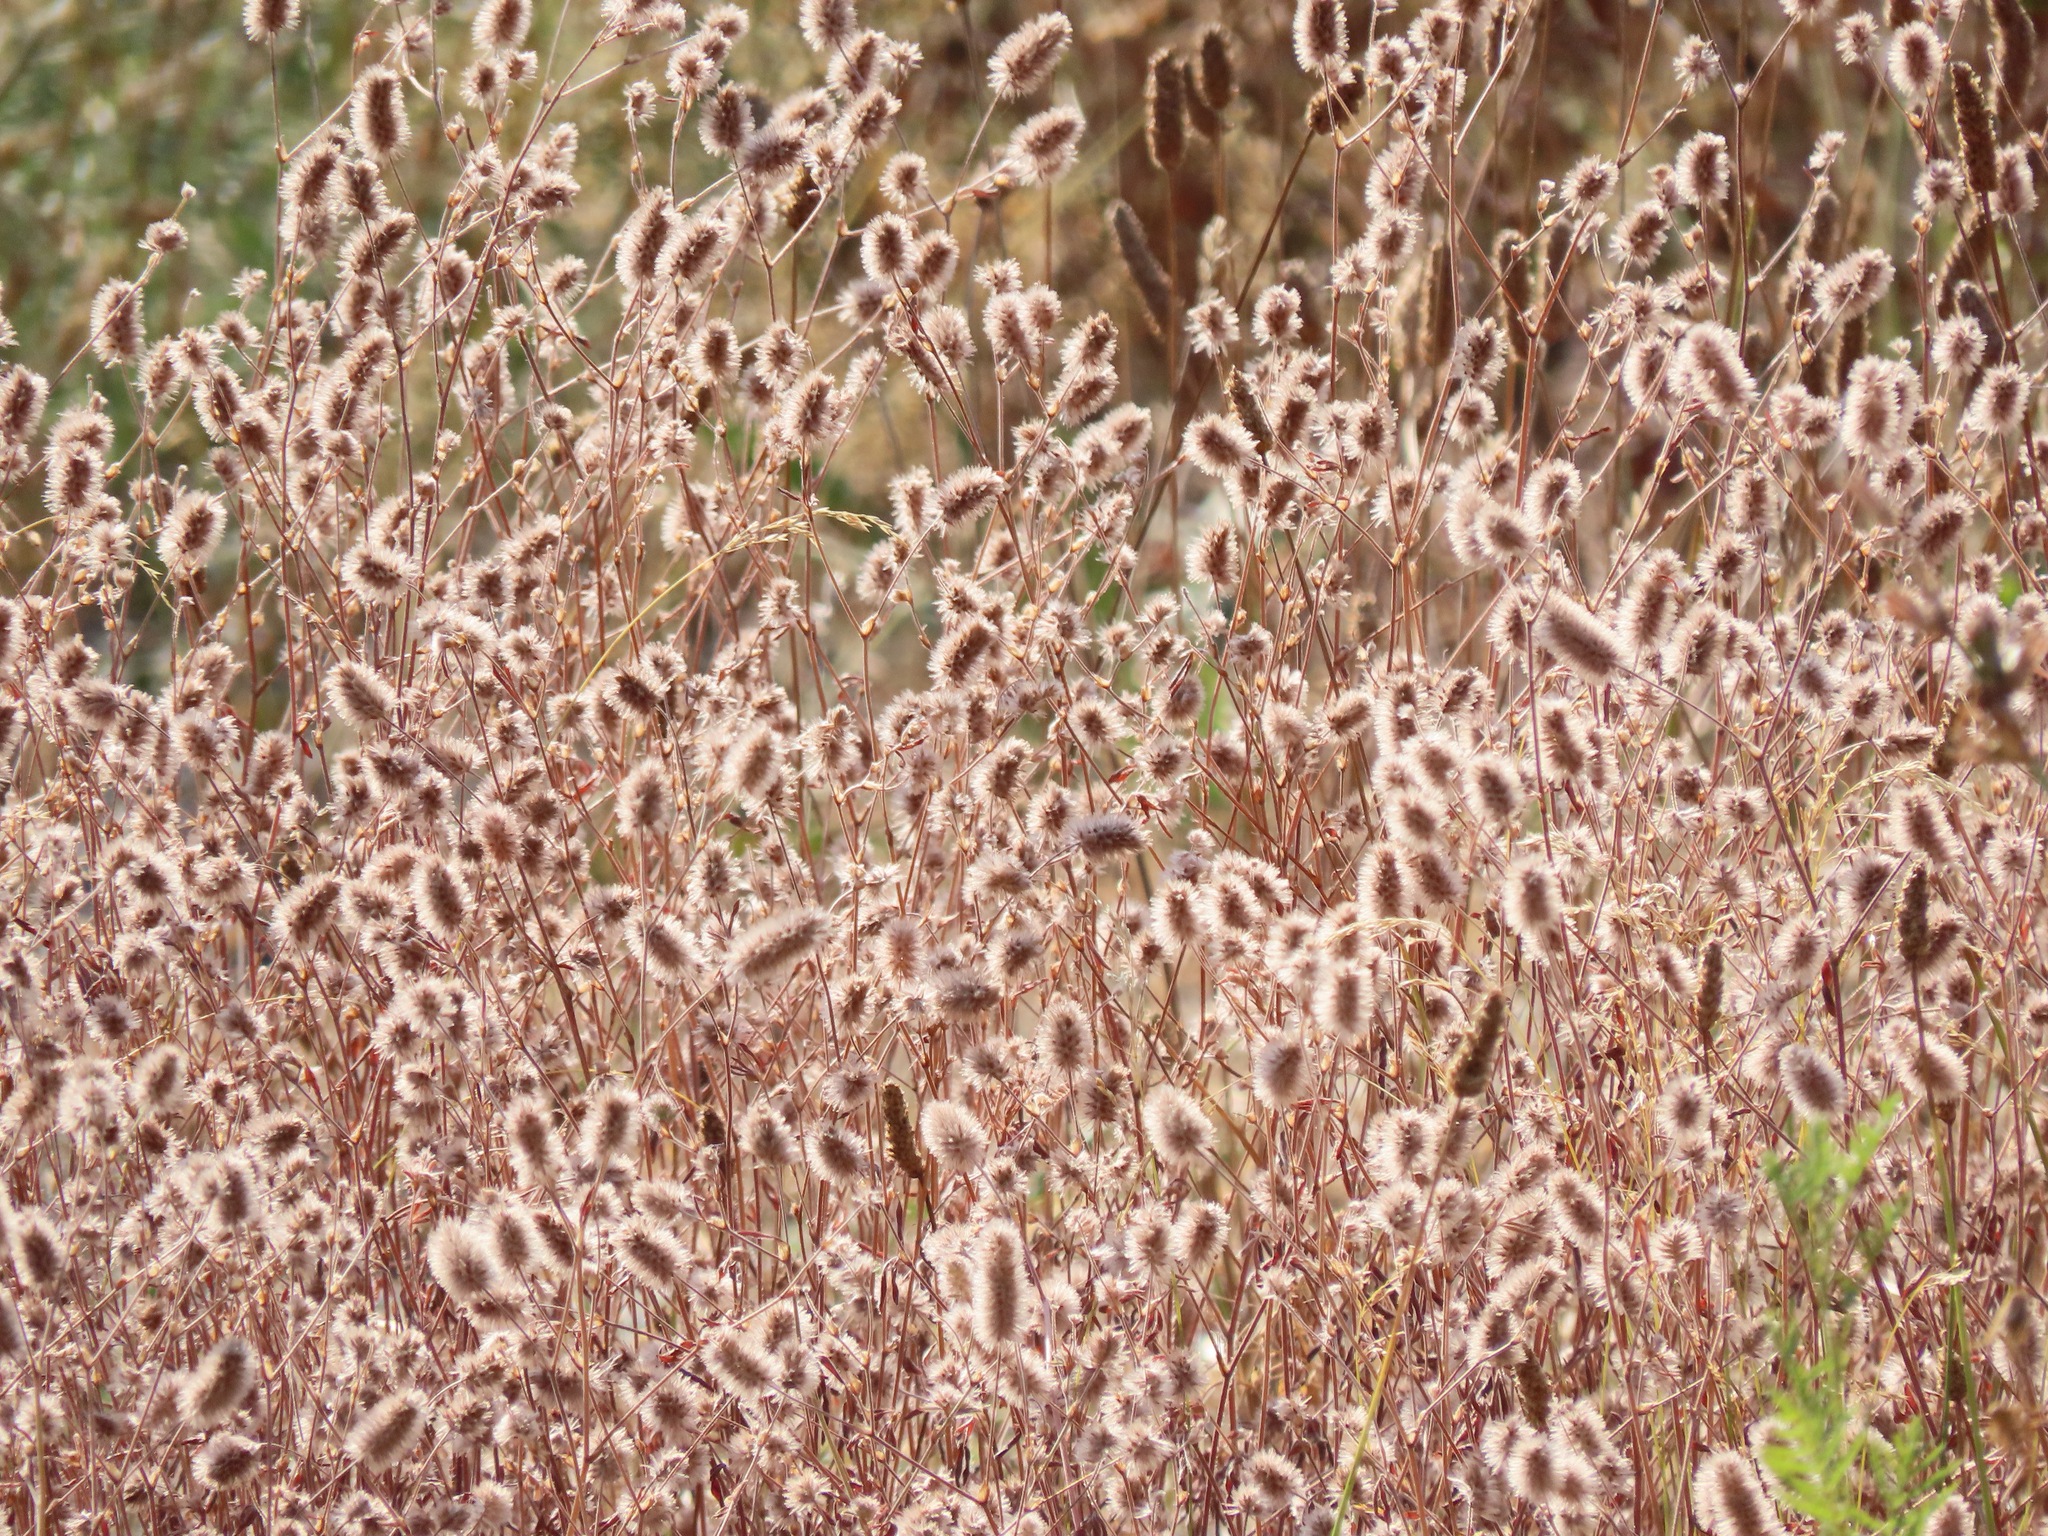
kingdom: Plantae
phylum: Tracheophyta
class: Magnoliopsida
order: Fabales
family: Fabaceae
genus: Trifolium
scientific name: Trifolium arvense
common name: Hare's-foot clover
